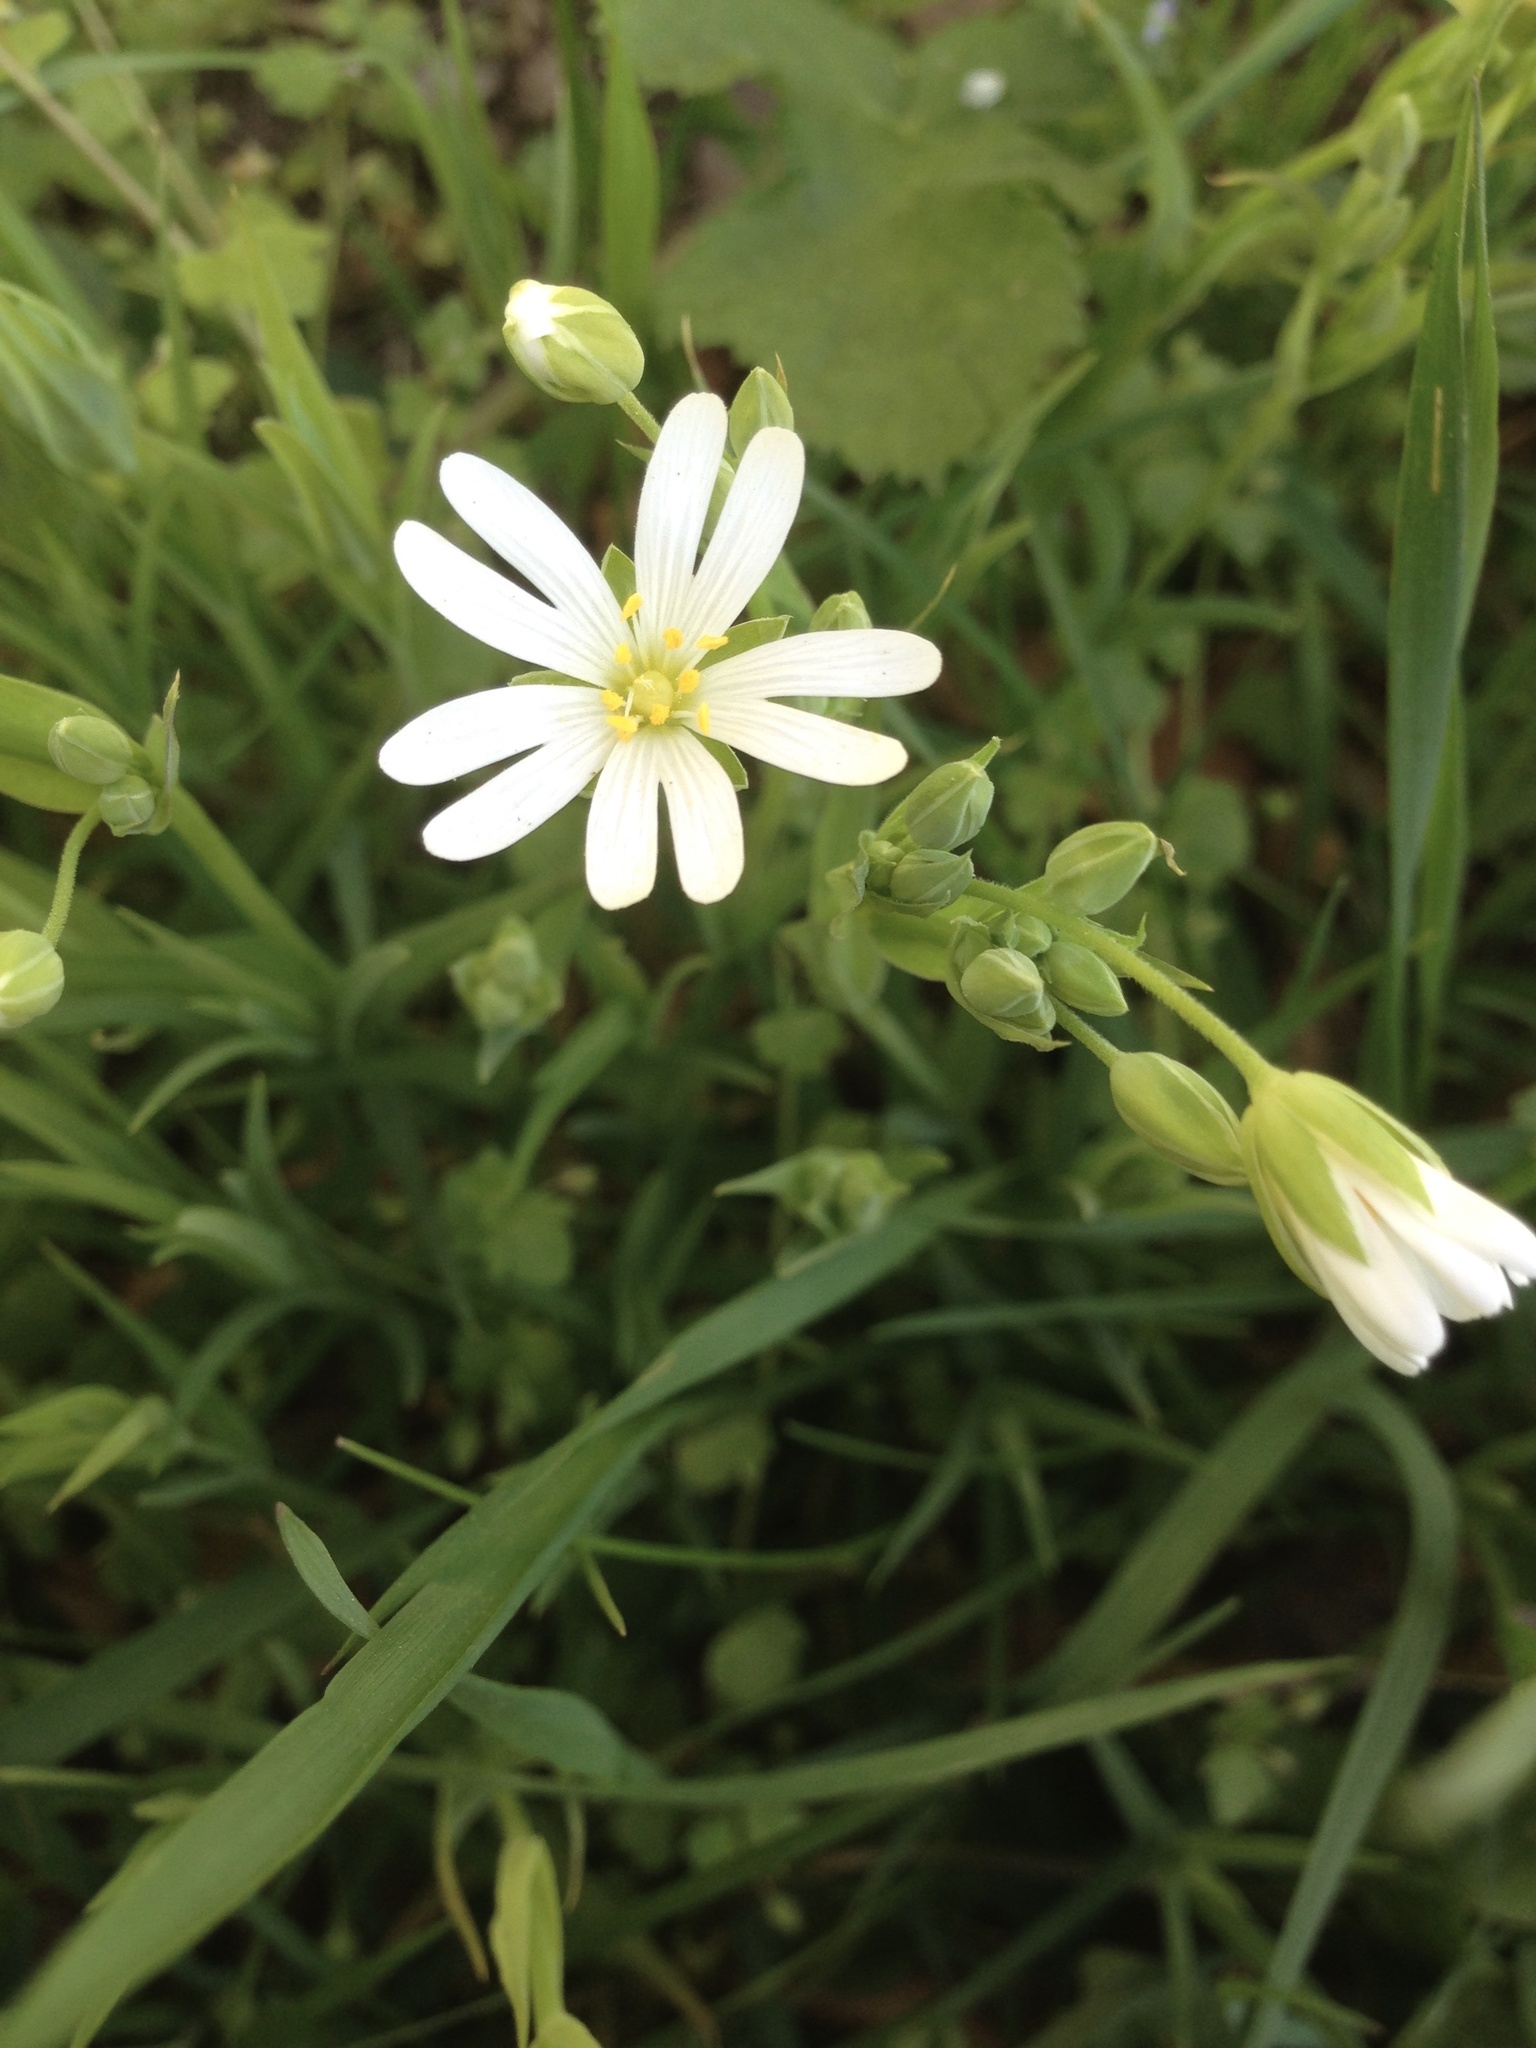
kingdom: Plantae
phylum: Tracheophyta
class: Magnoliopsida
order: Caryophyllales
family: Caryophyllaceae
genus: Rabelera
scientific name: Rabelera holostea
